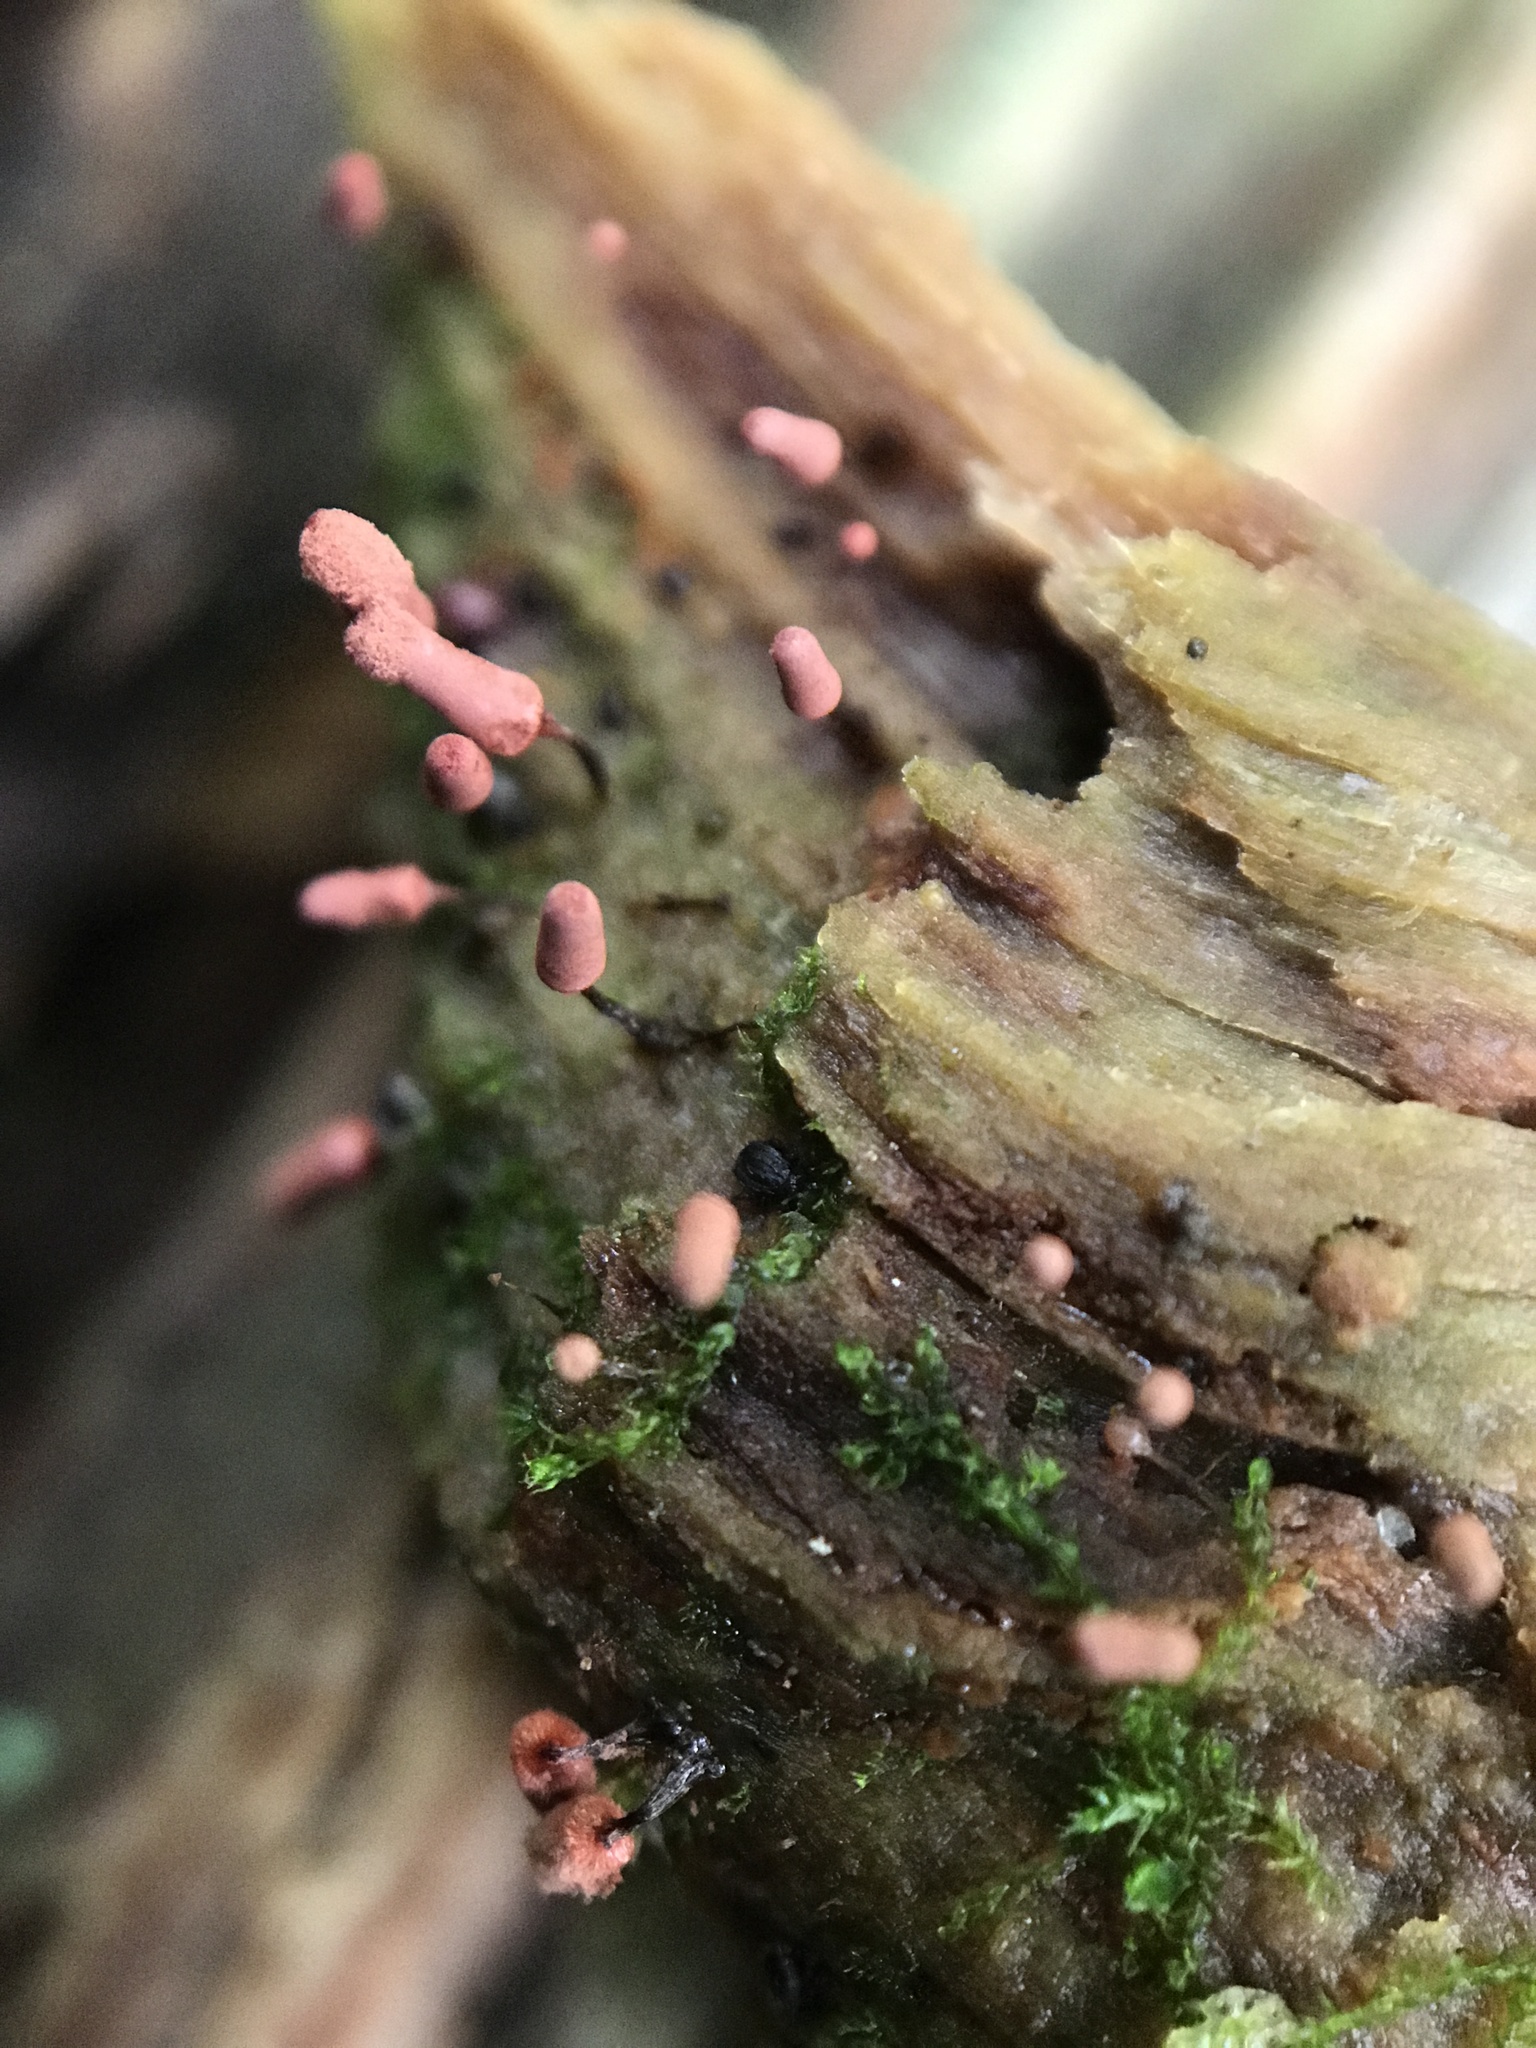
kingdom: Protozoa
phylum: Mycetozoa
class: Myxomycetes
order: Trichiales
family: Arcyriaceae
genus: Arcyria
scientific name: Arcyria denudata
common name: Carnival candy slime mold
